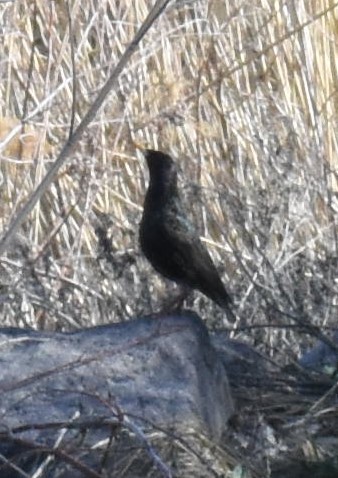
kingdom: Animalia
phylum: Chordata
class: Aves
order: Passeriformes
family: Sturnidae
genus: Sturnus
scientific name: Sturnus vulgaris
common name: Common starling
